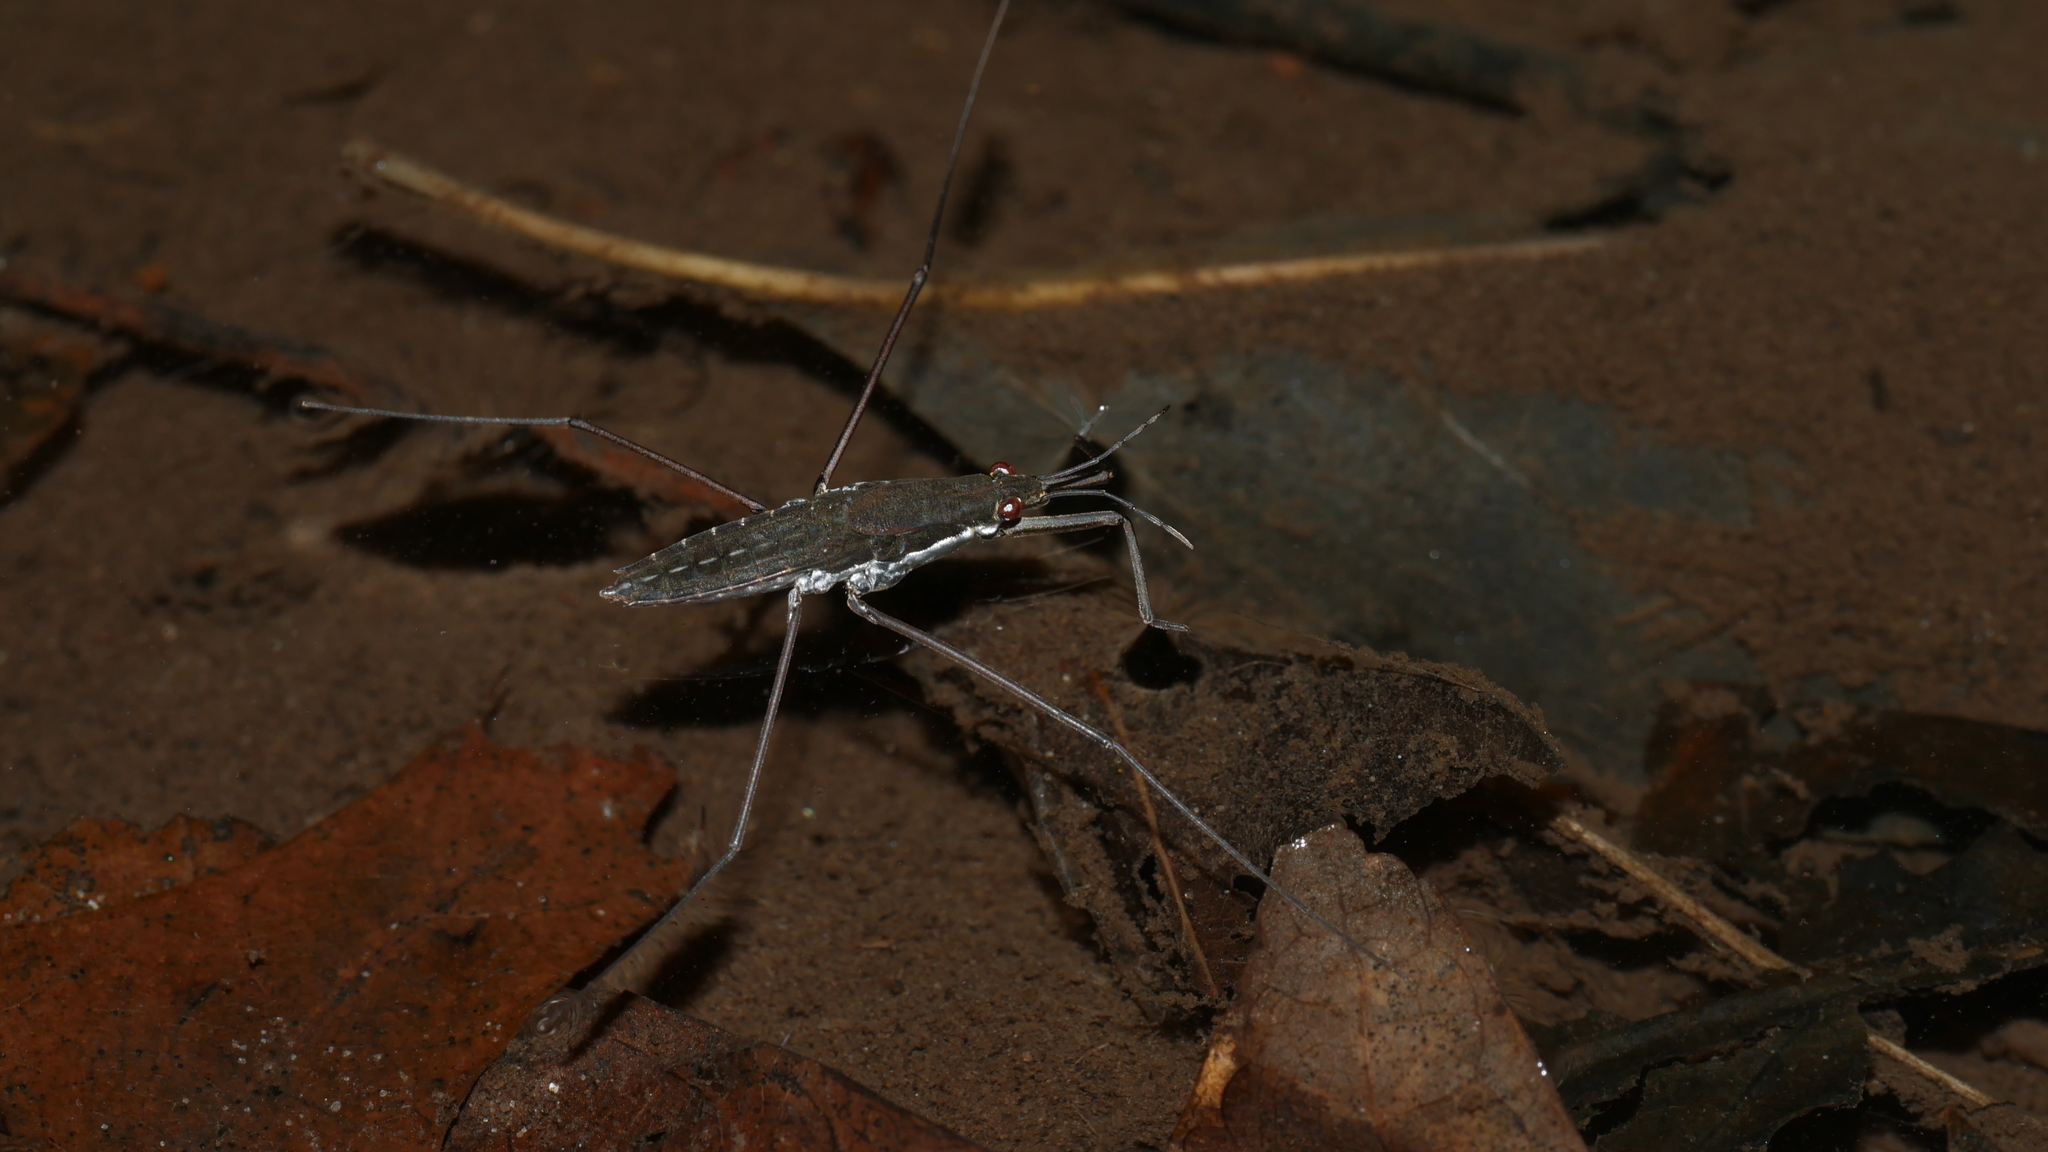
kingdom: Animalia
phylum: Arthropoda
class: Insecta
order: Hemiptera
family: Gerridae
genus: Aquarius
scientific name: Aquarius
